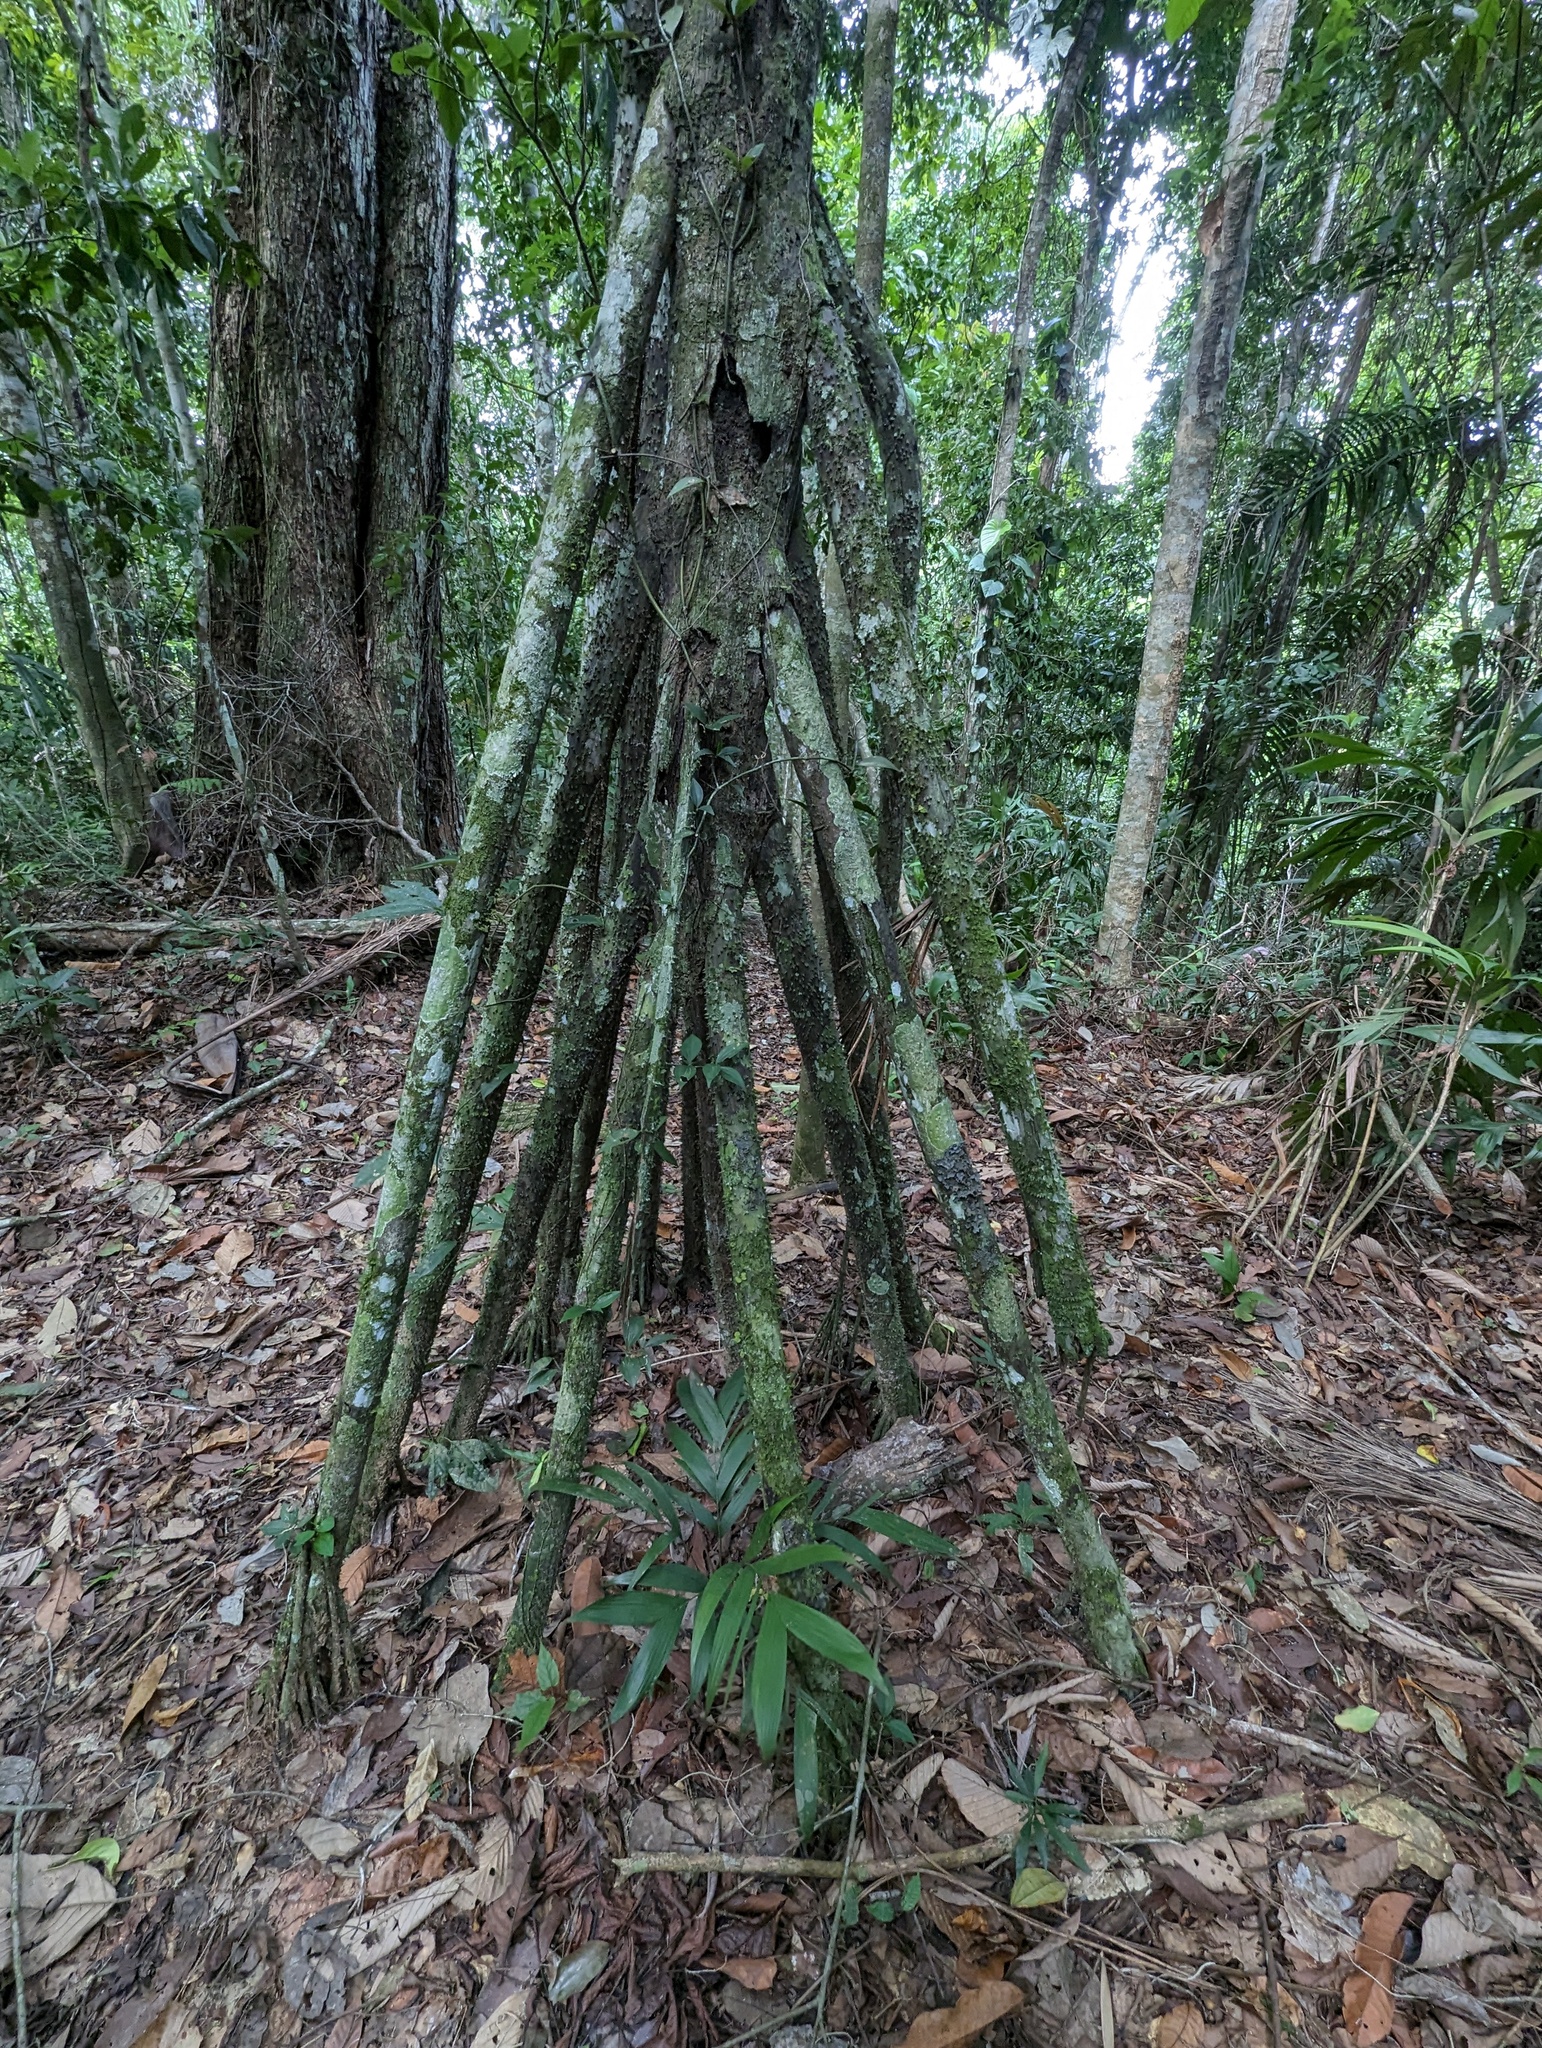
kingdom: Plantae
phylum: Tracheophyta
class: Liliopsida
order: Arecales
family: Arecaceae
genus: Socratea
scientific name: Socratea exorrhiza
